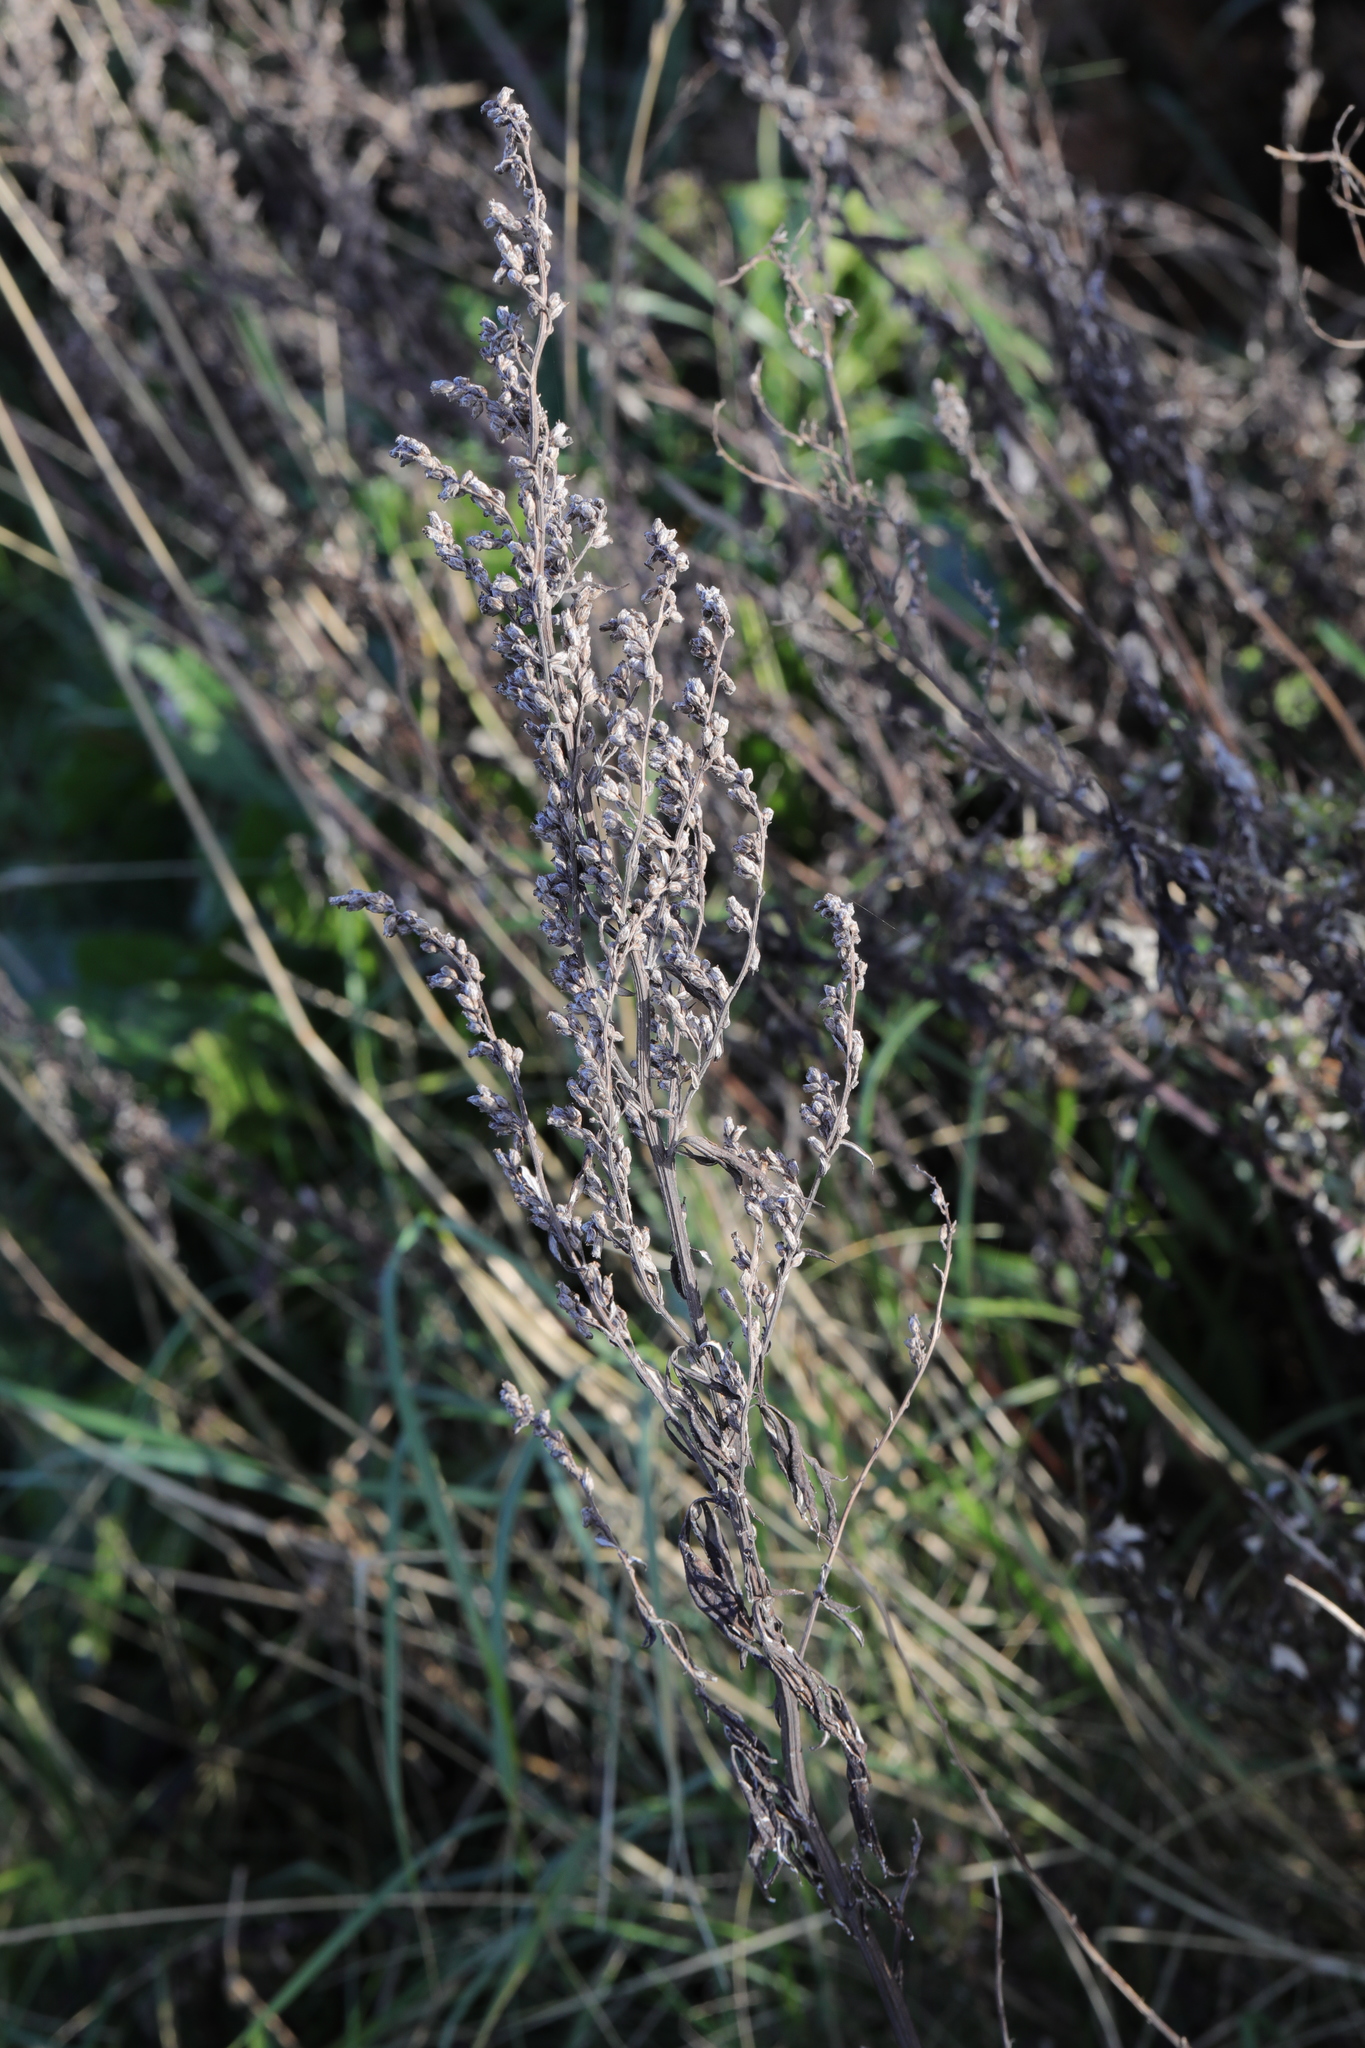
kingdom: Plantae
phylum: Tracheophyta
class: Magnoliopsida
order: Asterales
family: Asteraceae
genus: Artemisia
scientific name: Artemisia vulgaris
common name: Mugwort
